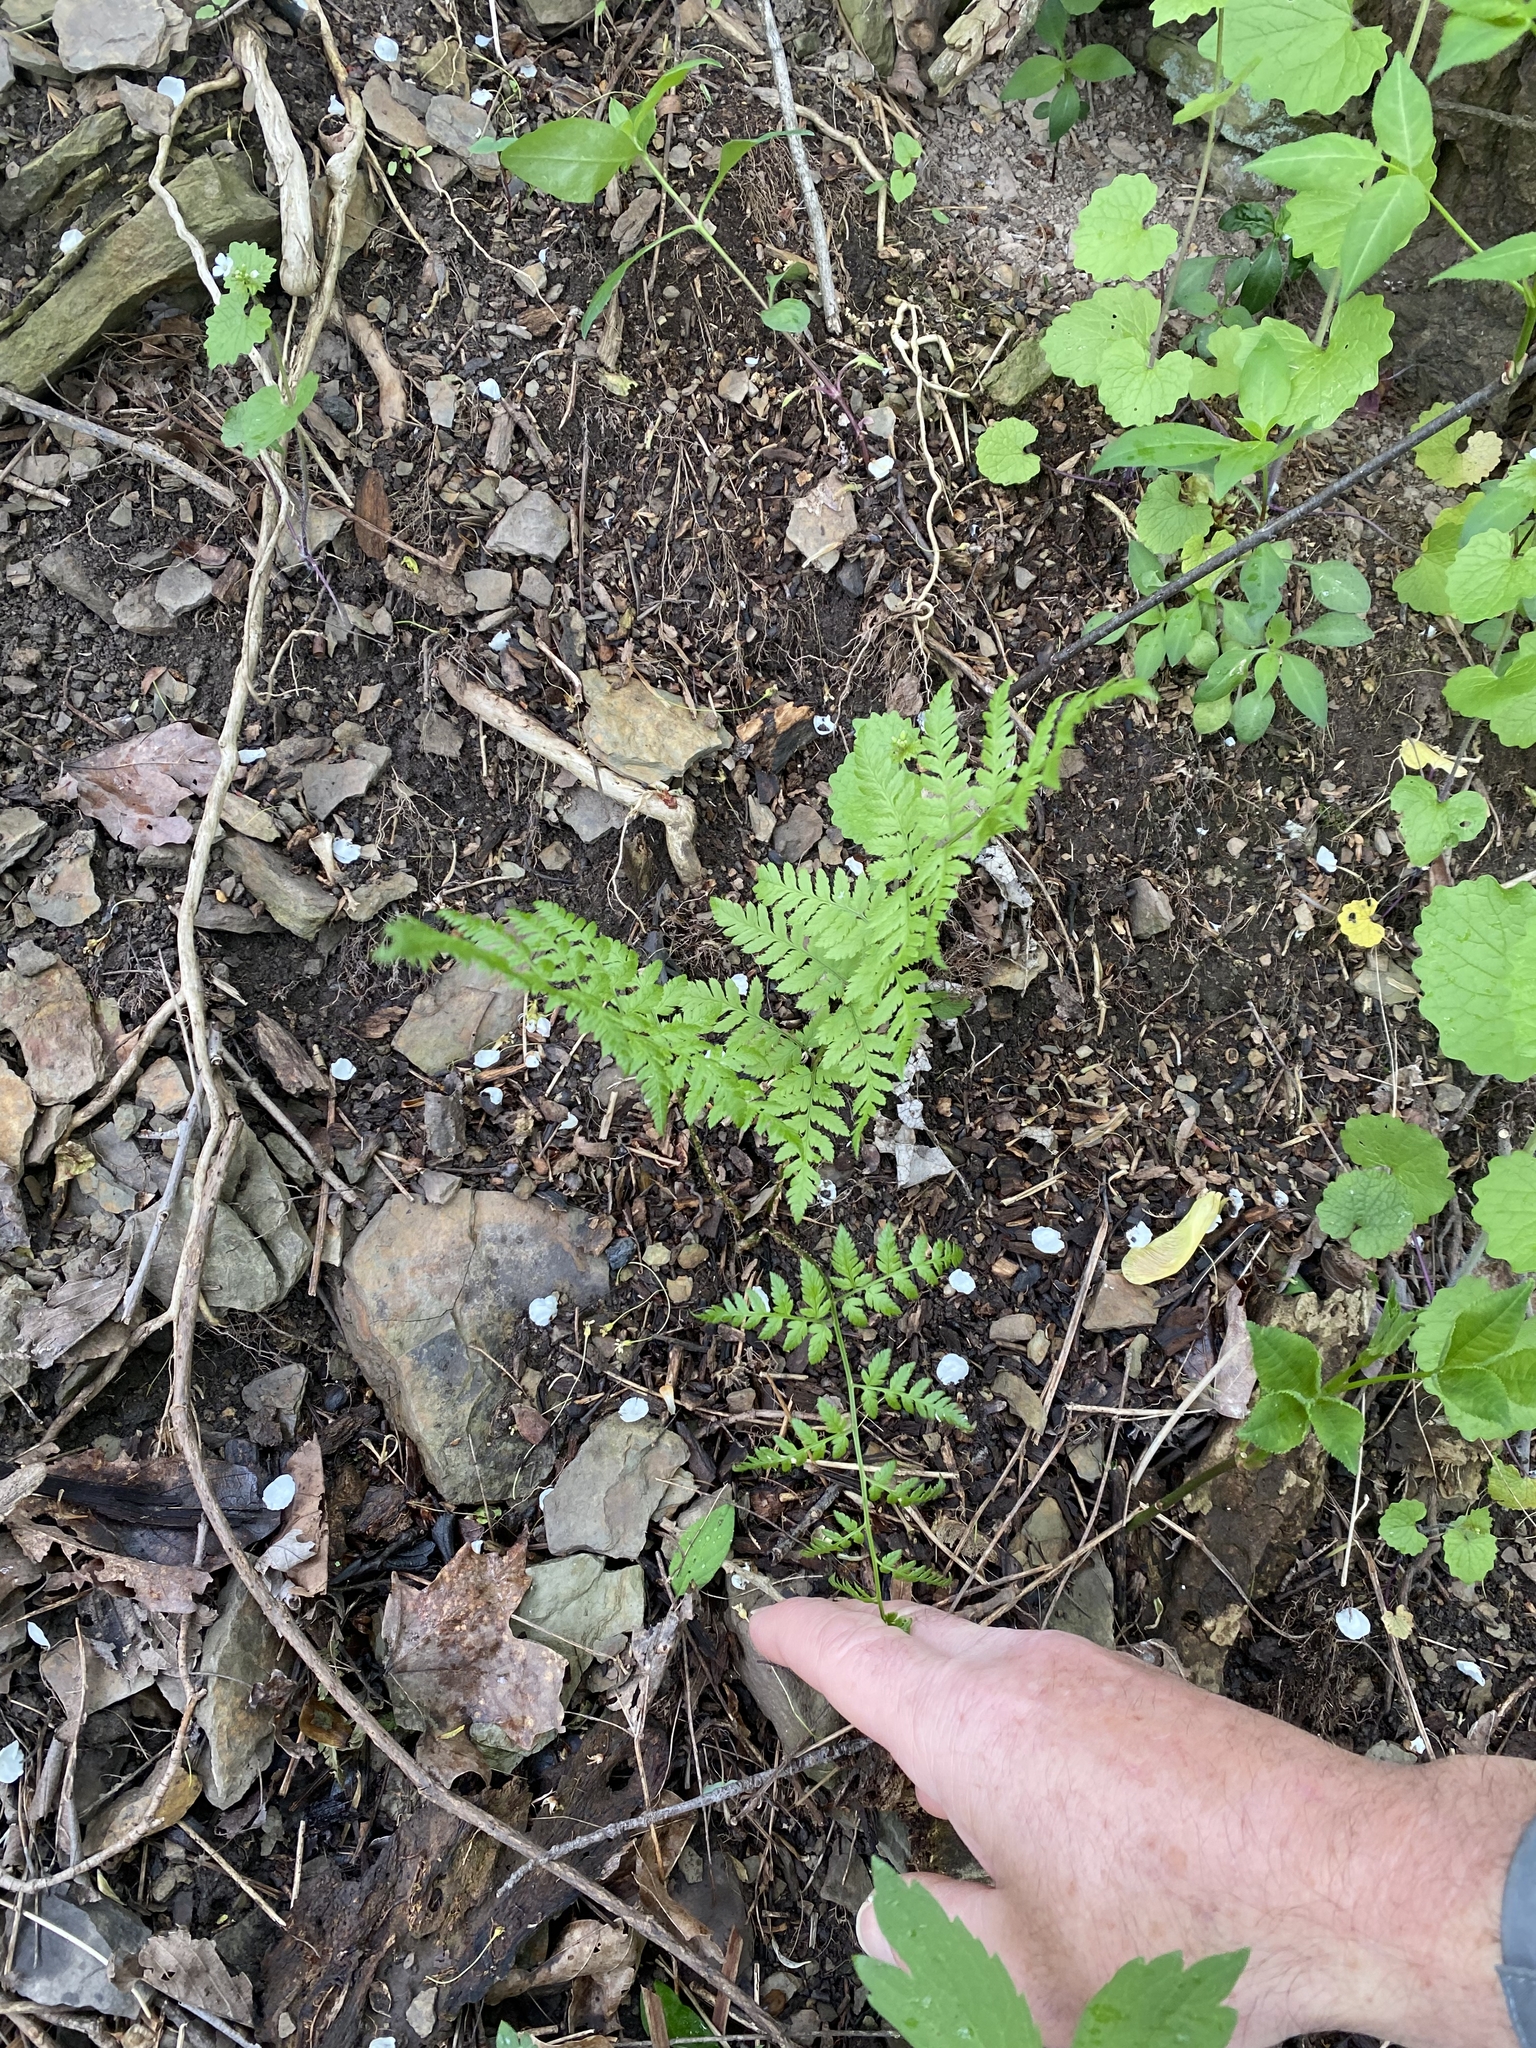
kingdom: Plantae
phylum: Tracheophyta
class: Polypodiopsida
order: Polypodiales
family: Dryopteridaceae
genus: Dryopteris
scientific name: Dryopteris carthusiana
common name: Narrow buckler-fern
